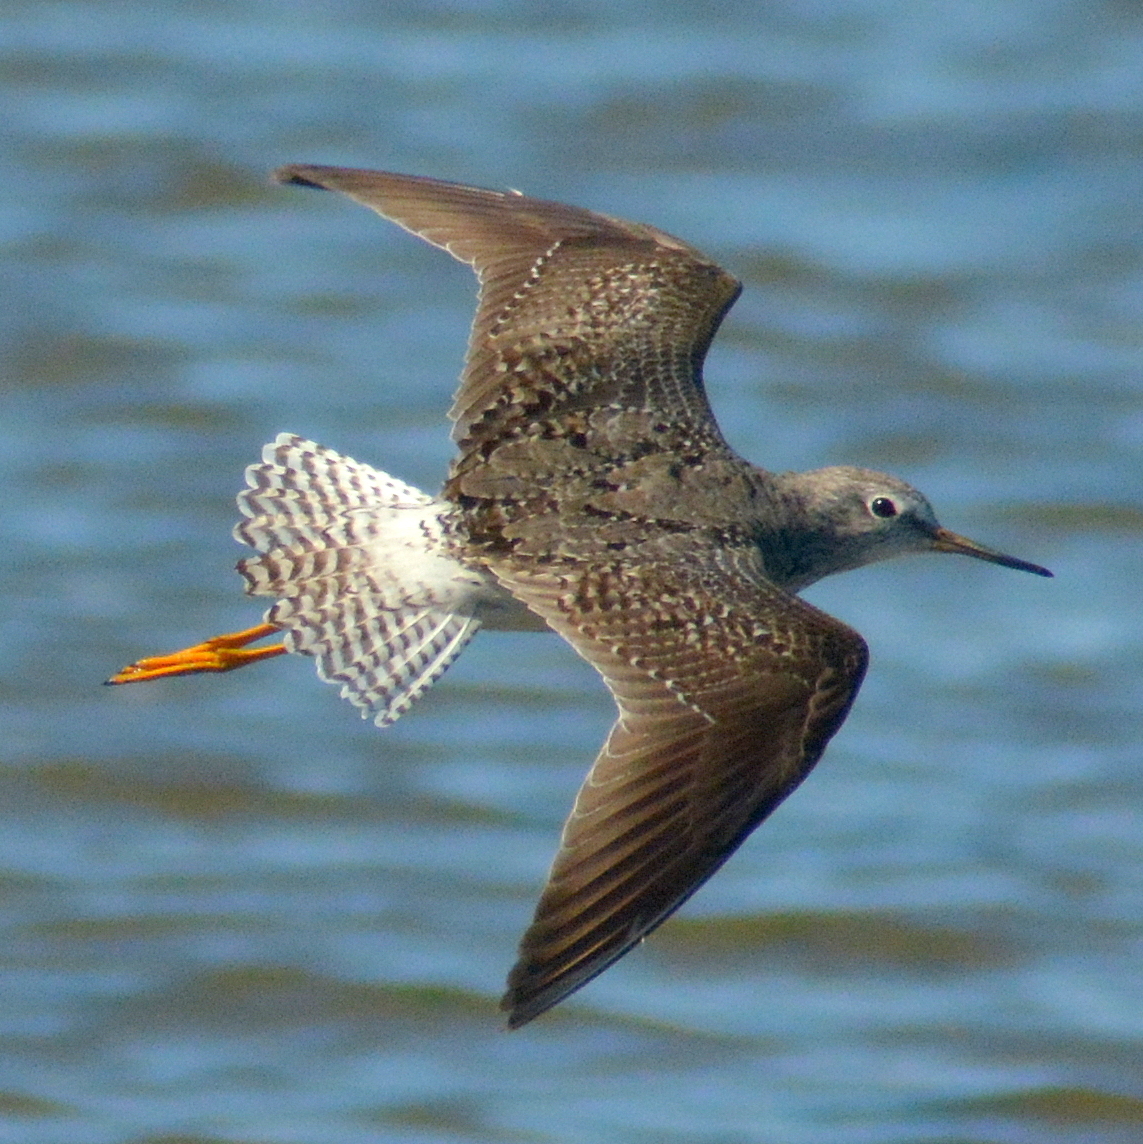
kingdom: Animalia
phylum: Chordata
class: Aves
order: Charadriiformes
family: Scolopacidae
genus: Tringa
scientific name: Tringa flavipes
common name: Lesser yellowlegs
